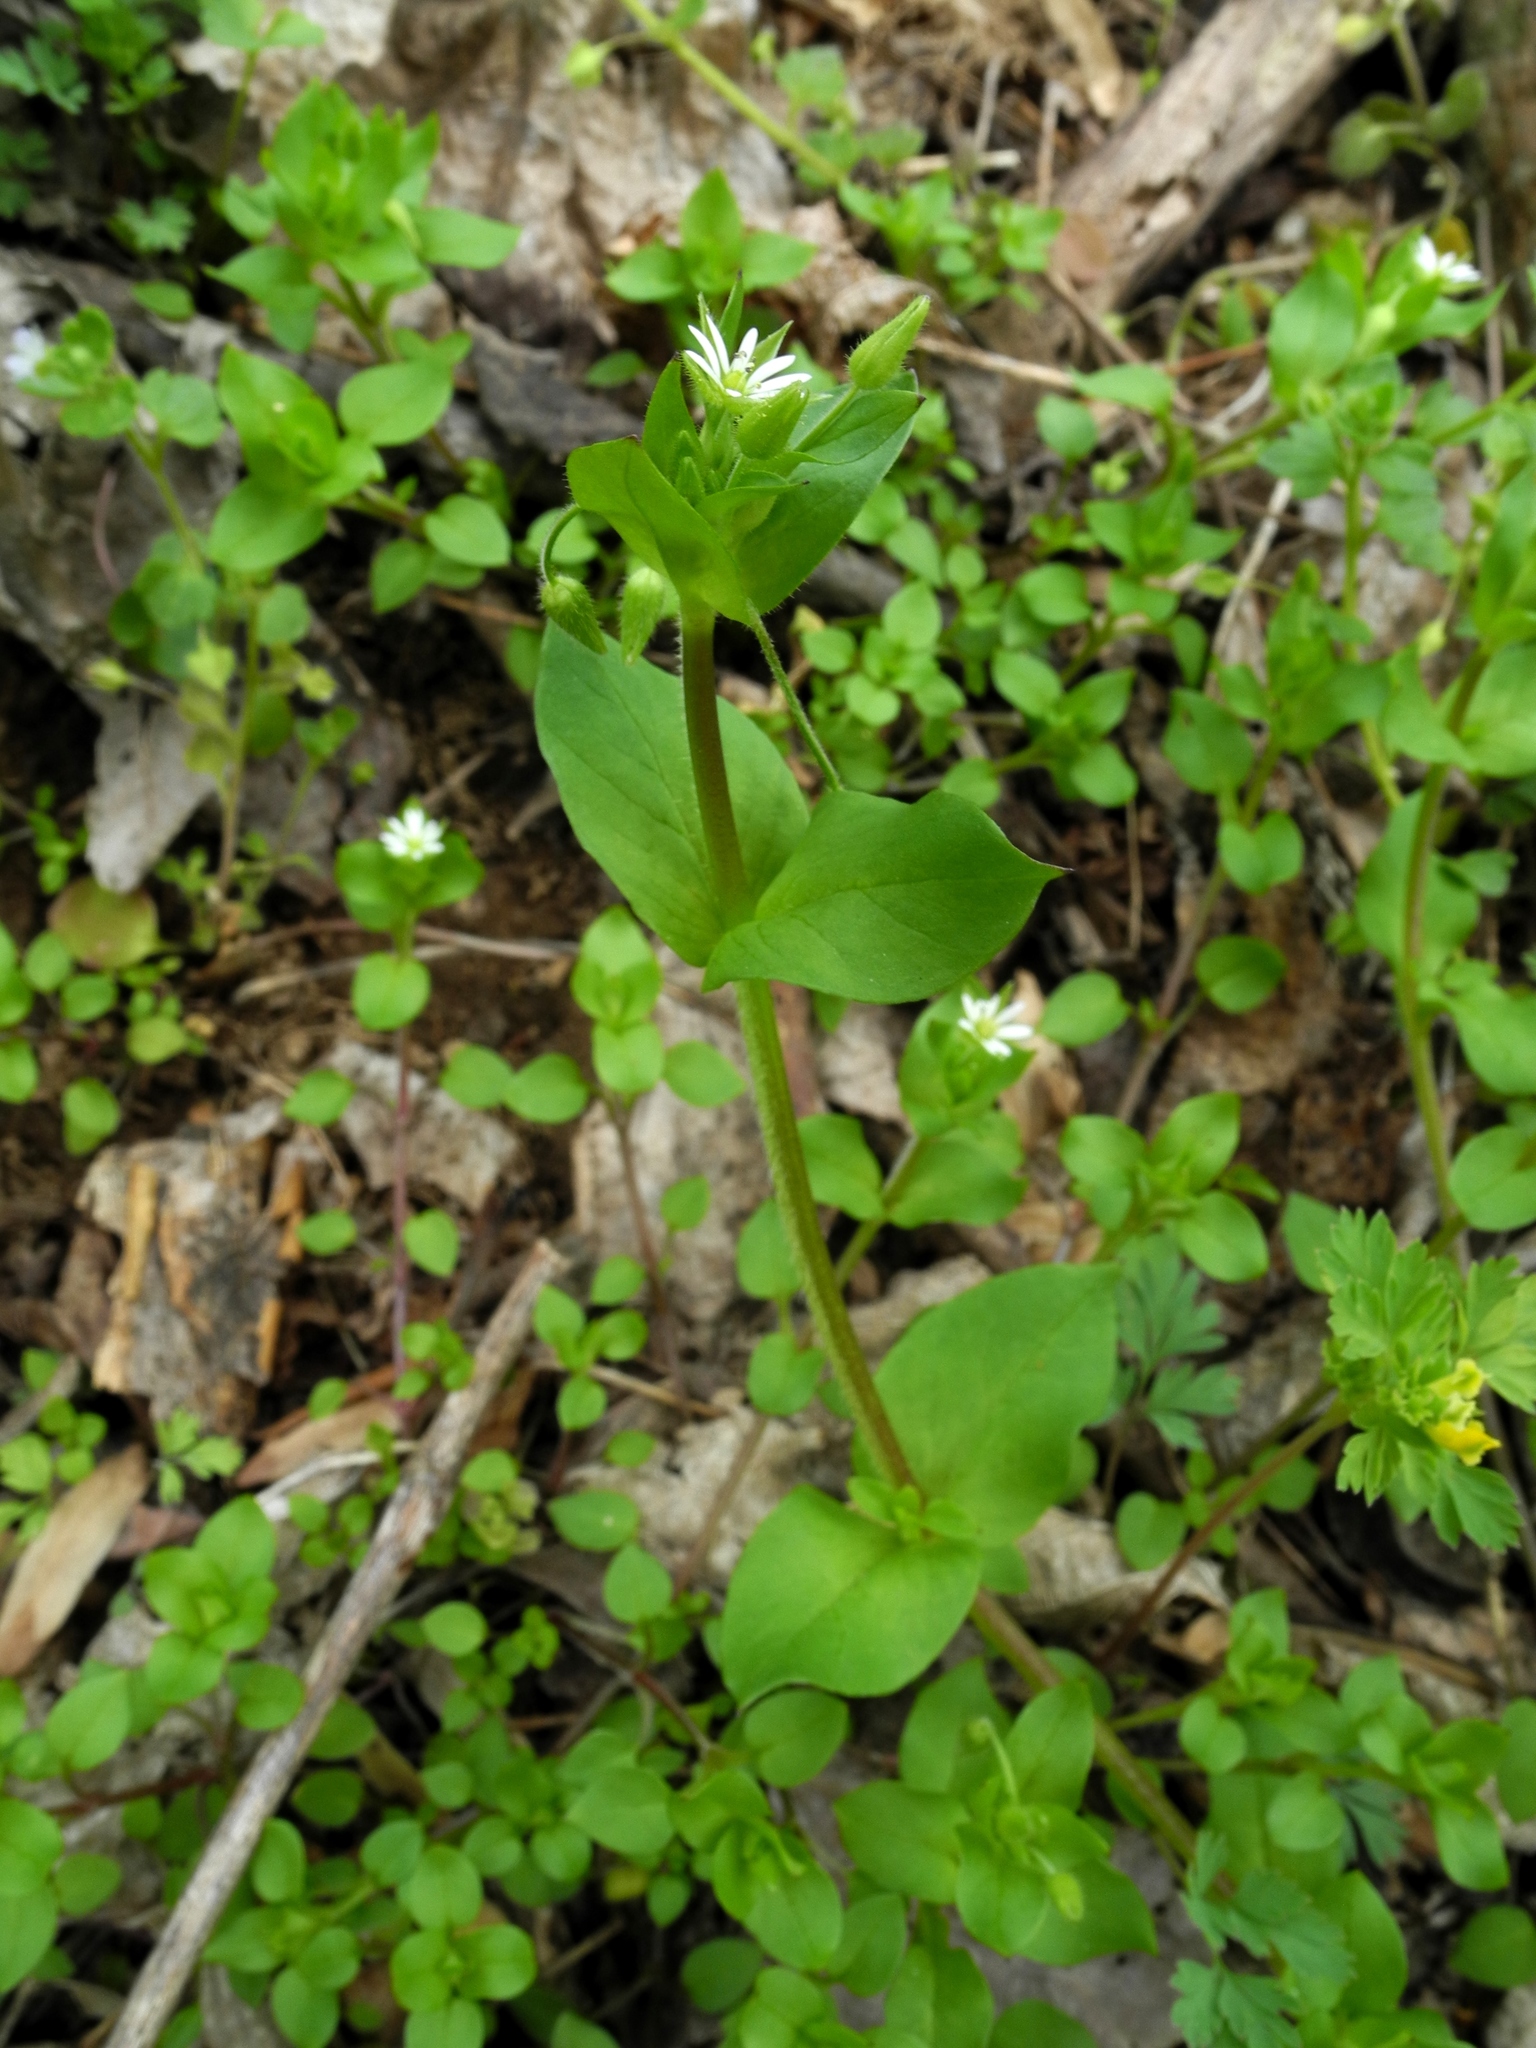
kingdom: Plantae
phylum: Tracheophyta
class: Magnoliopsida
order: Caryophyllales
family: Caryophyllaceae
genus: Stellaria
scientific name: Stellaria media
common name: Common chickweed
